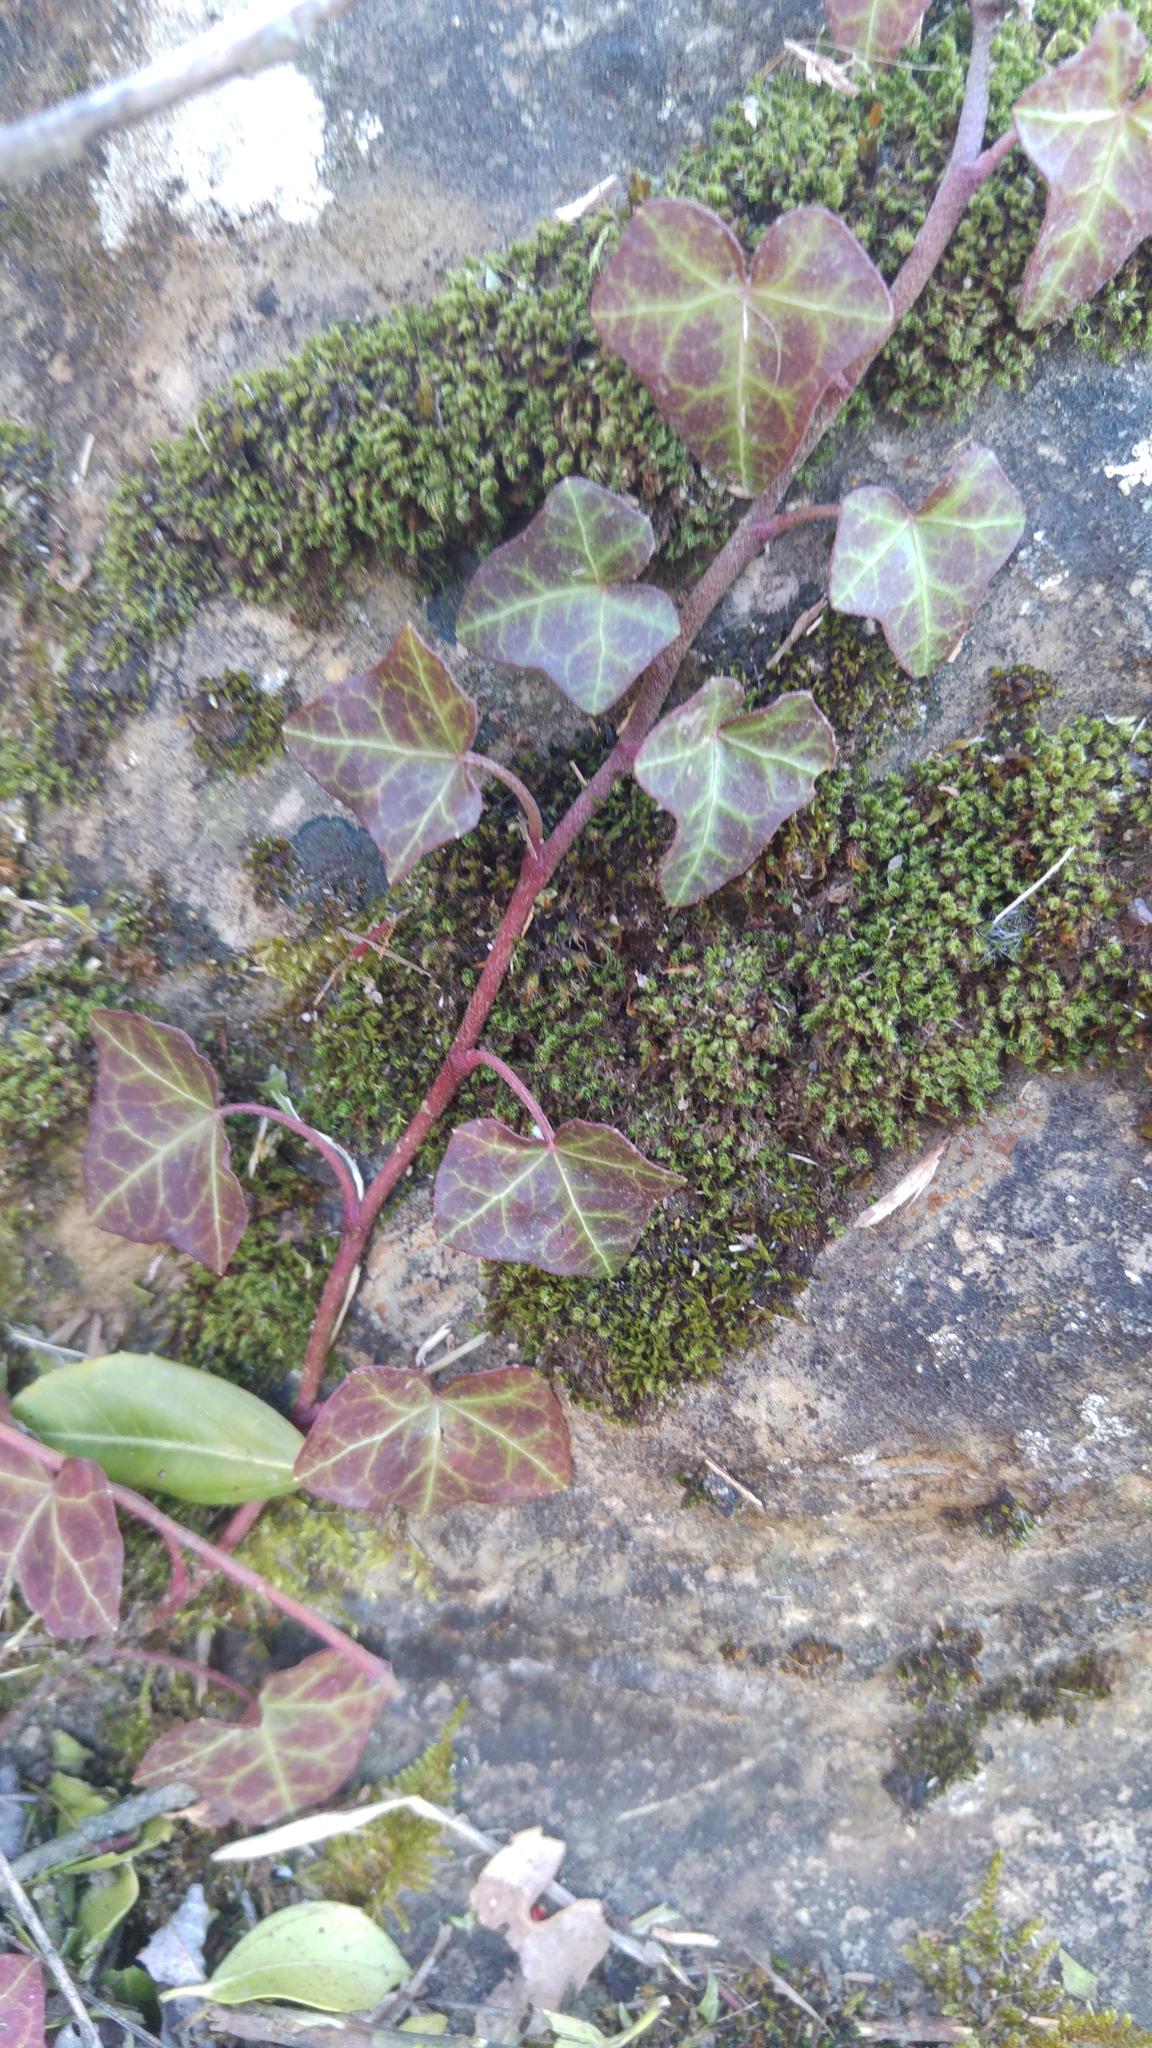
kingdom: Plantae
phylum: Tracheophyta
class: Magnoliopsida
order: Apiales
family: Araliaceae
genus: Hedera
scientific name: Hedera helix
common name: Ivy
